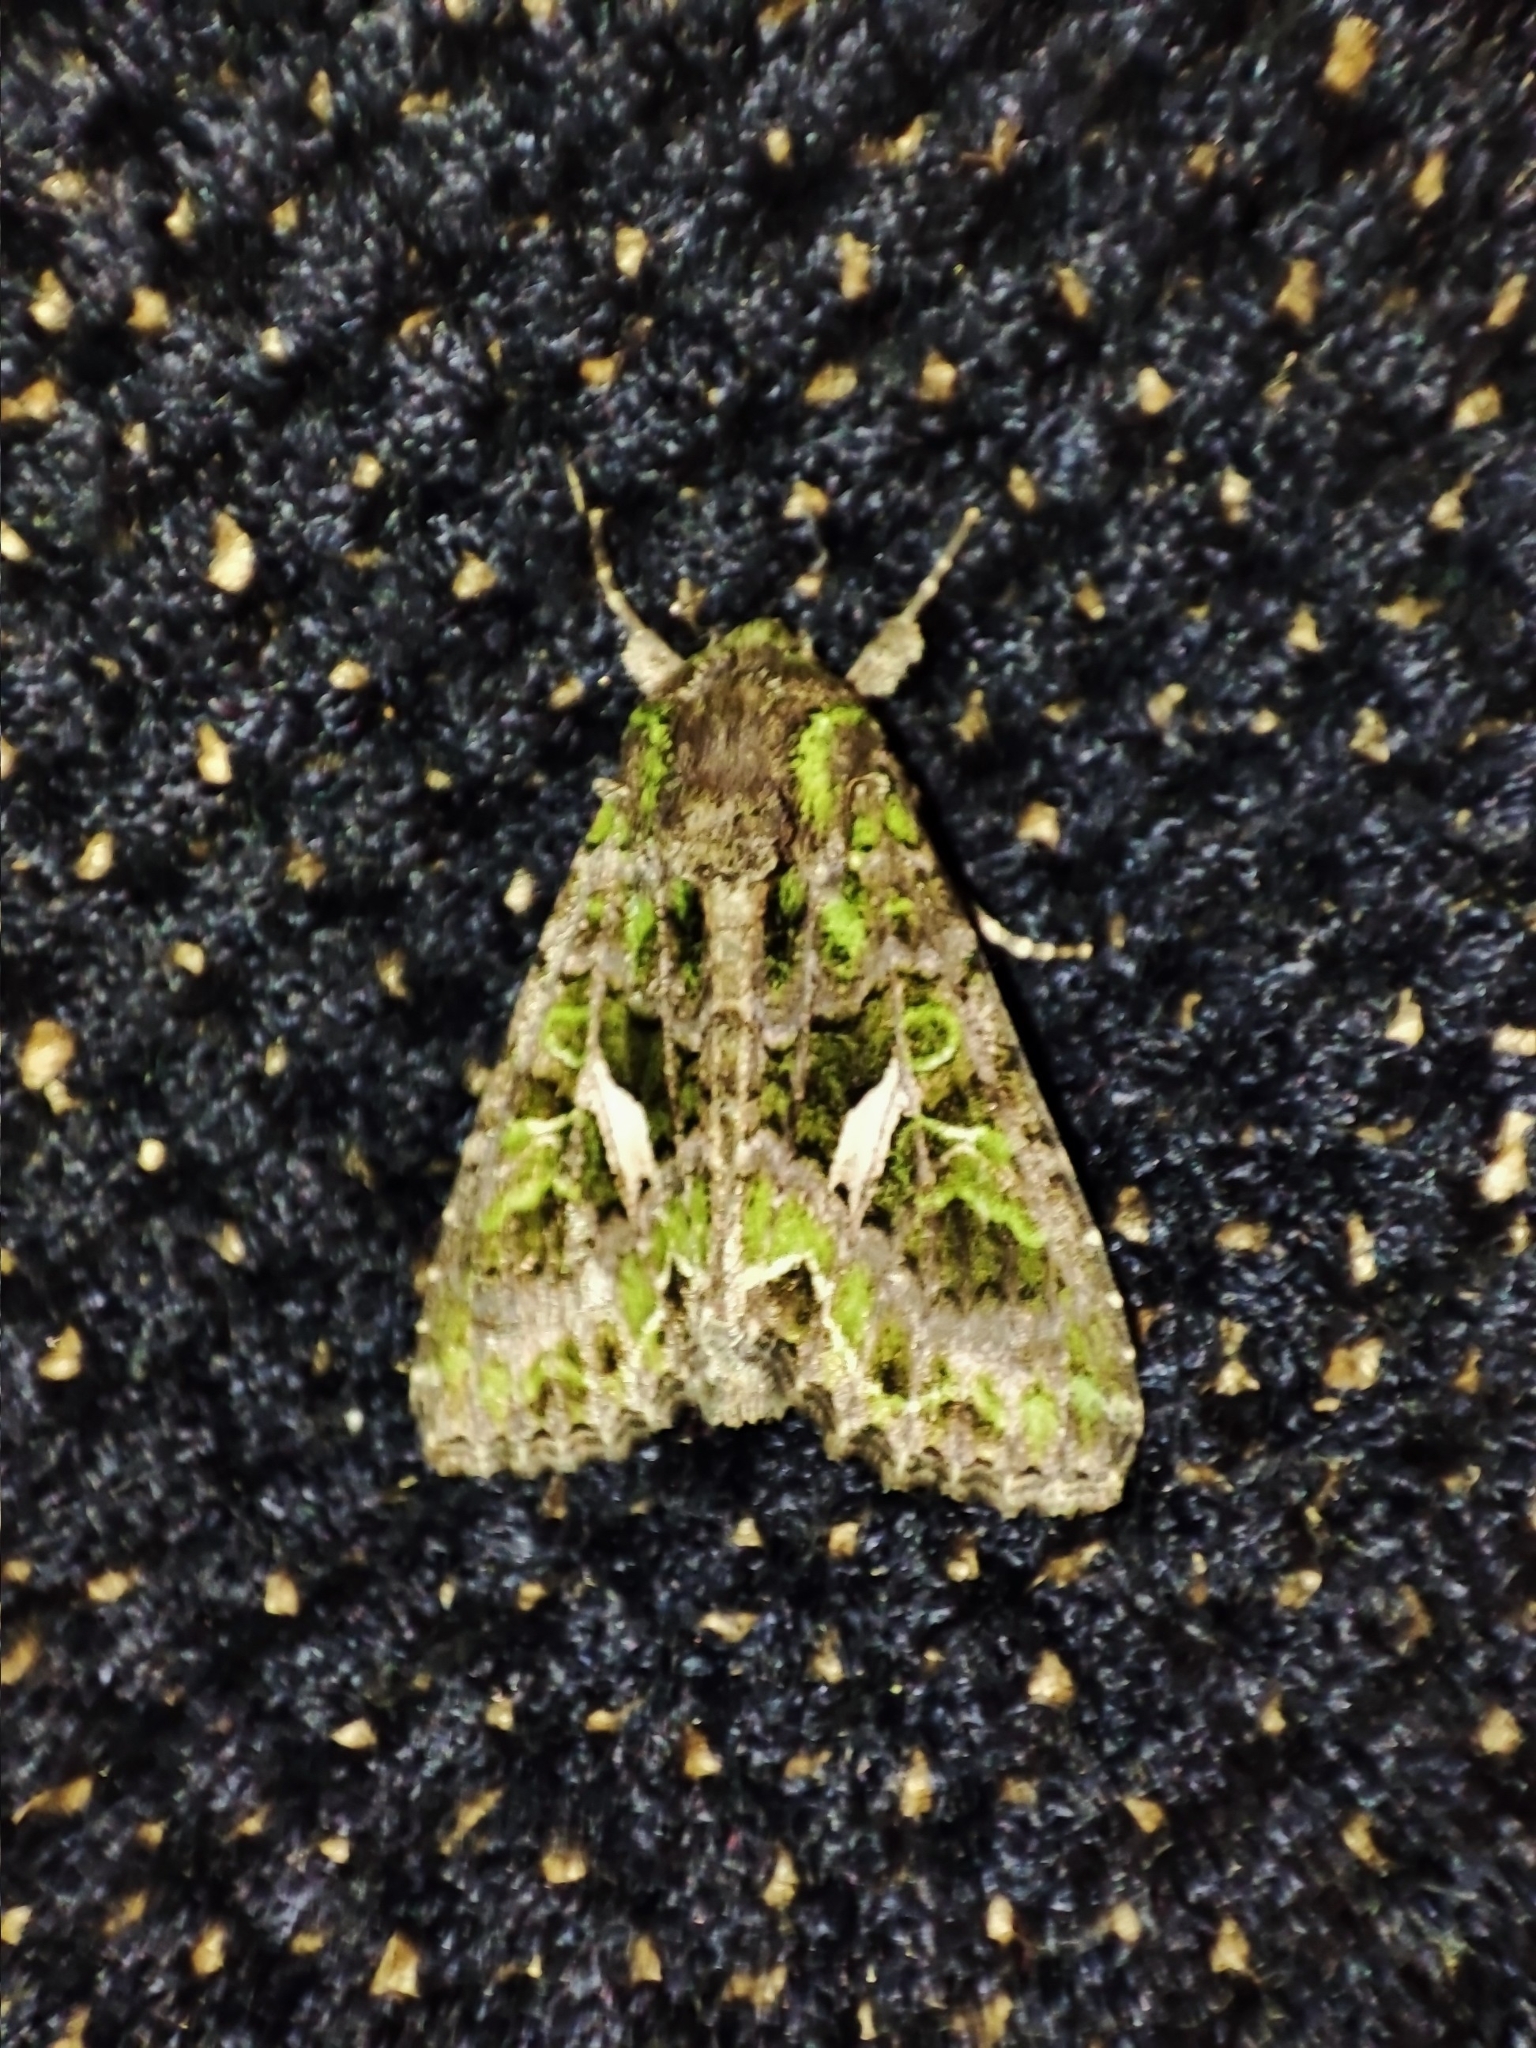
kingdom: Animalia
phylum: Arthropoda
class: Insecta
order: Lepidoptera
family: Noctuidae
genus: Trachea
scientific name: Trachea atriplicis
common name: Orache moth
